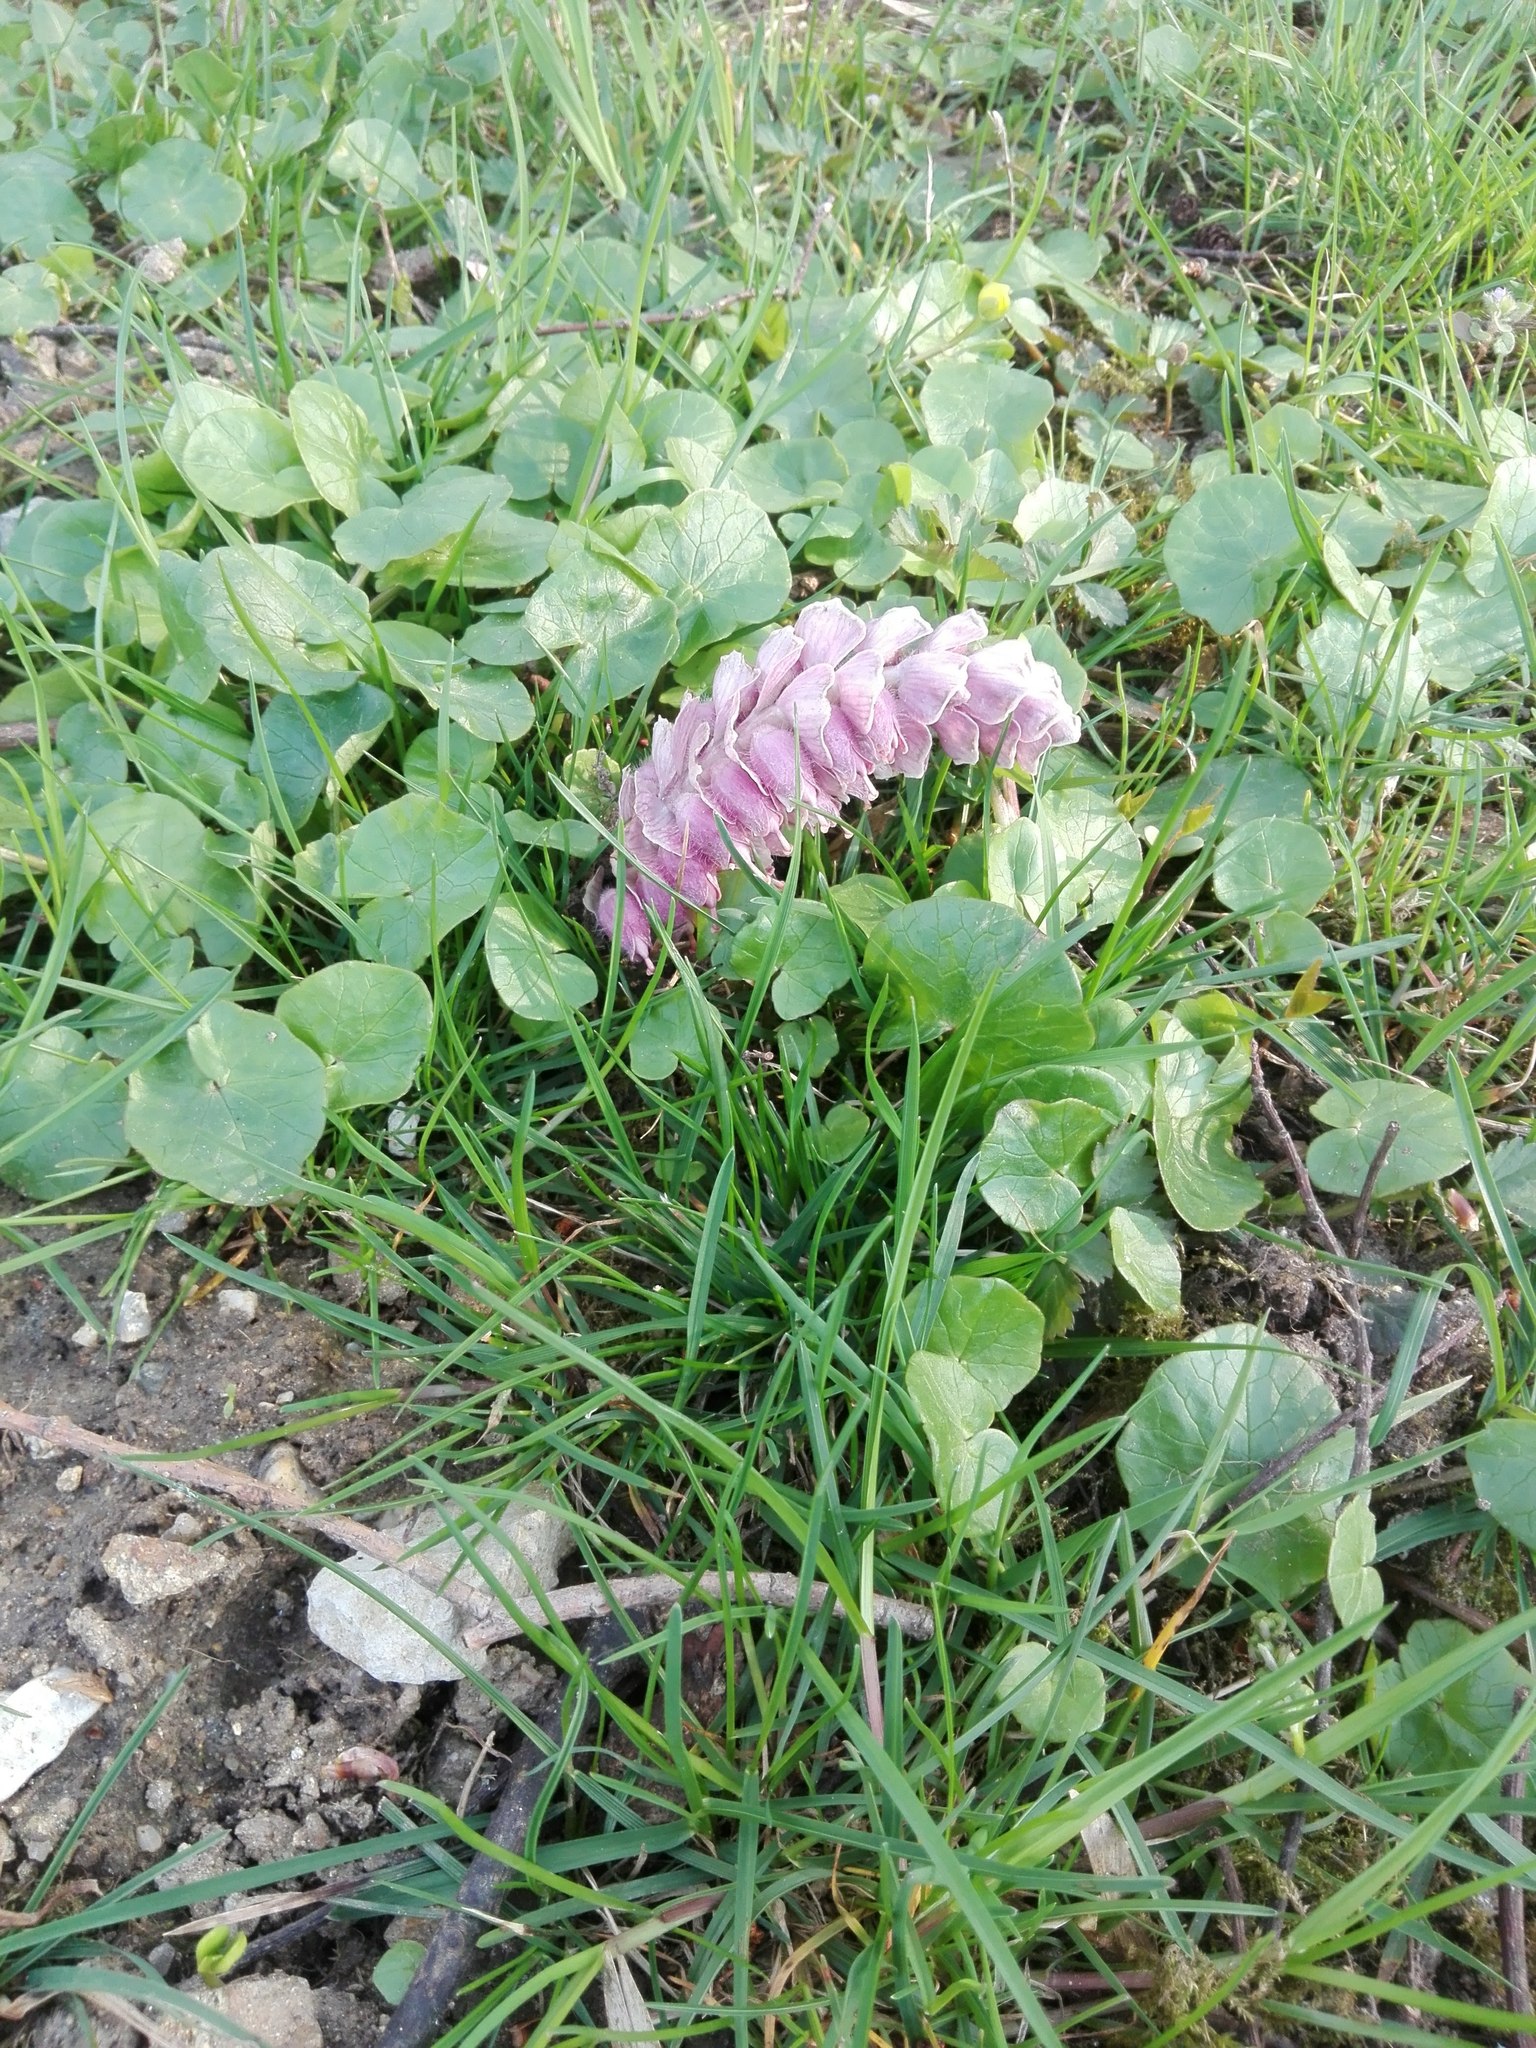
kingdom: Plantae
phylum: Tracheophyta
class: Magnoliopsida
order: Lamiales
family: Orobanchaceae
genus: Lathraea
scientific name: Lathraea squamaria
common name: Toothwort
